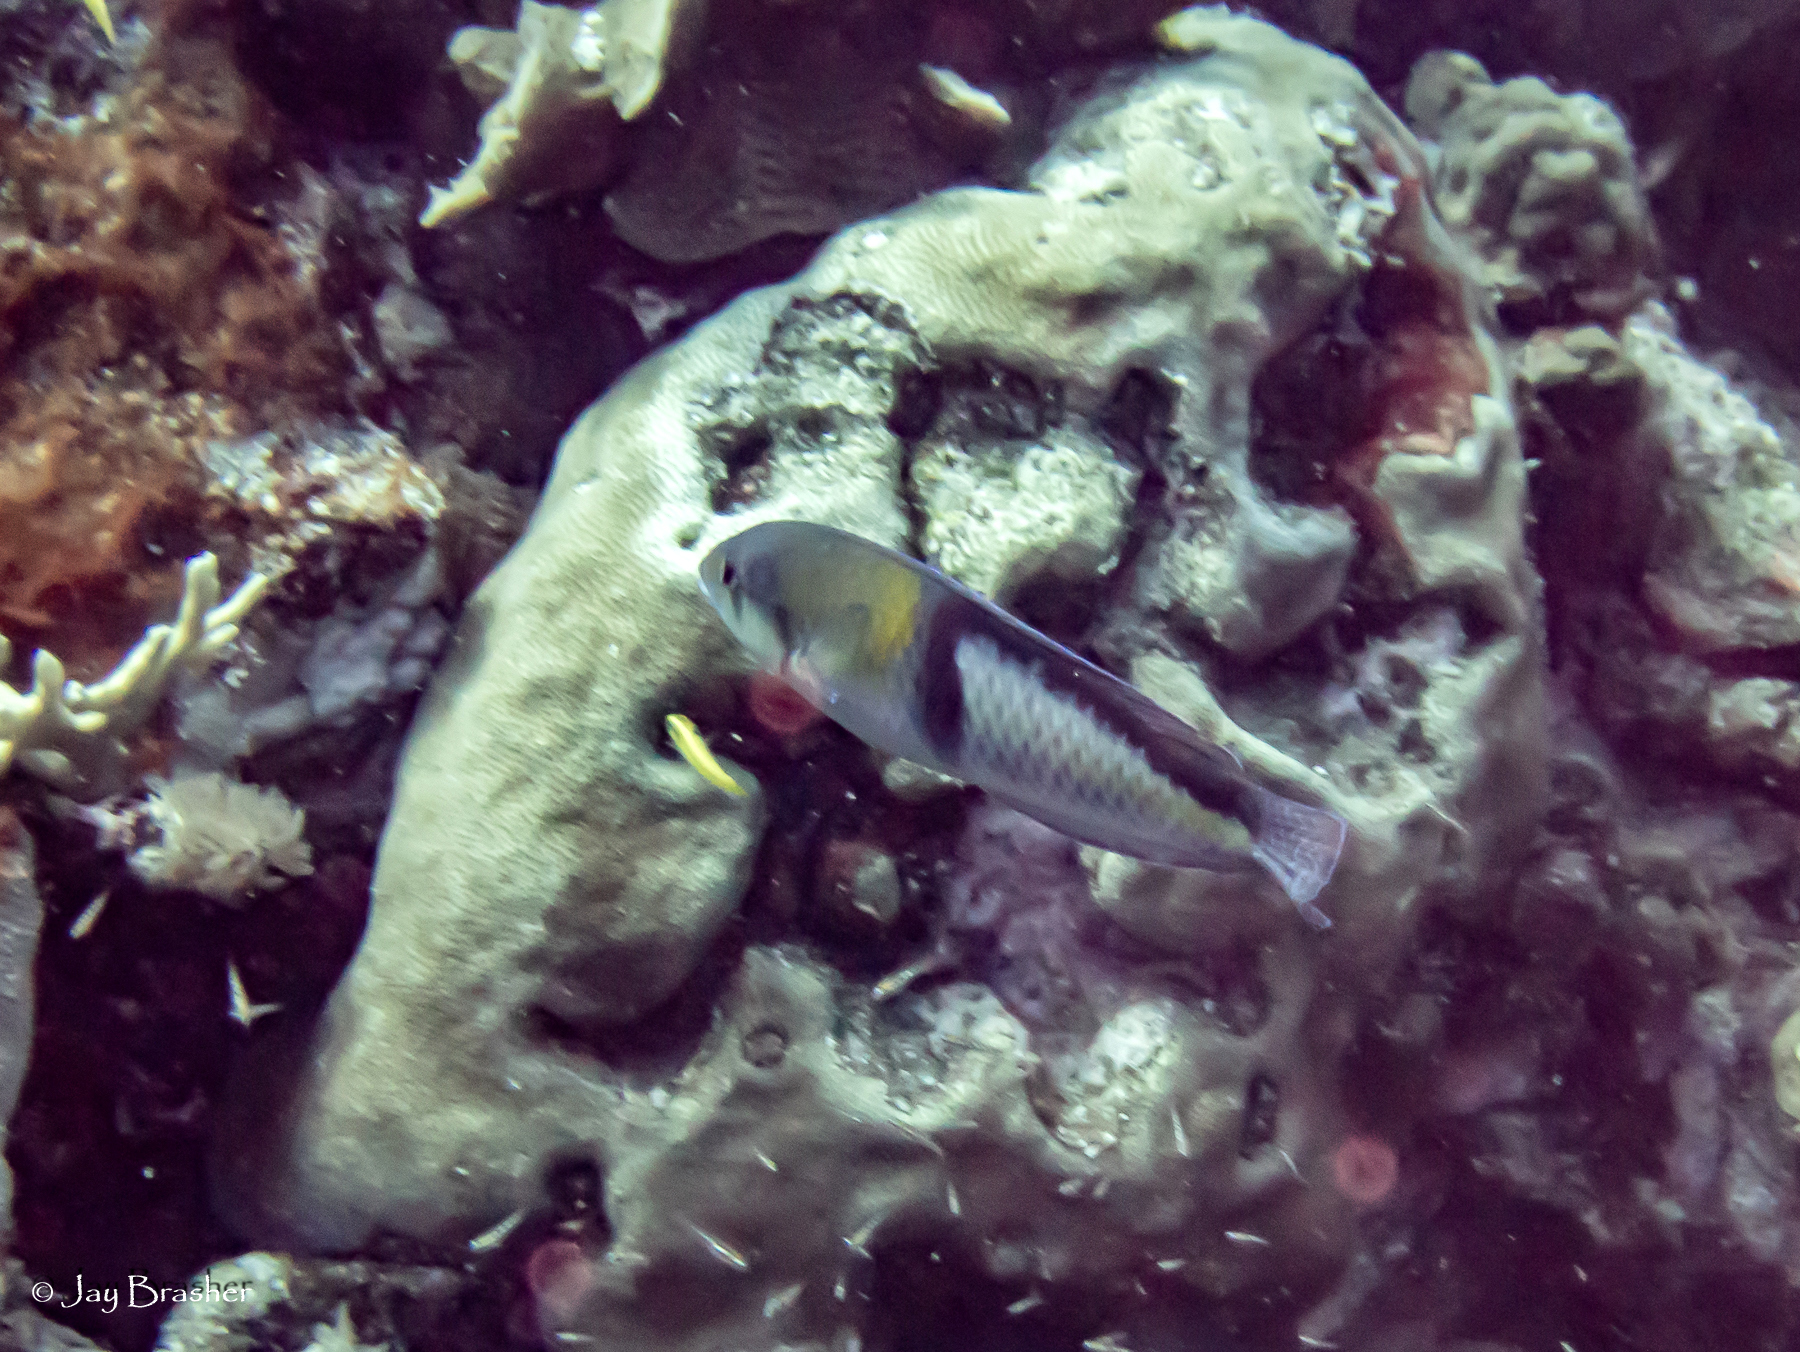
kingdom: Animalia
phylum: Chordata
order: Perciformes
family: Labridae
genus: Halichoeres
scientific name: Halichoeres garnoti
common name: Yellowhead wrasse
